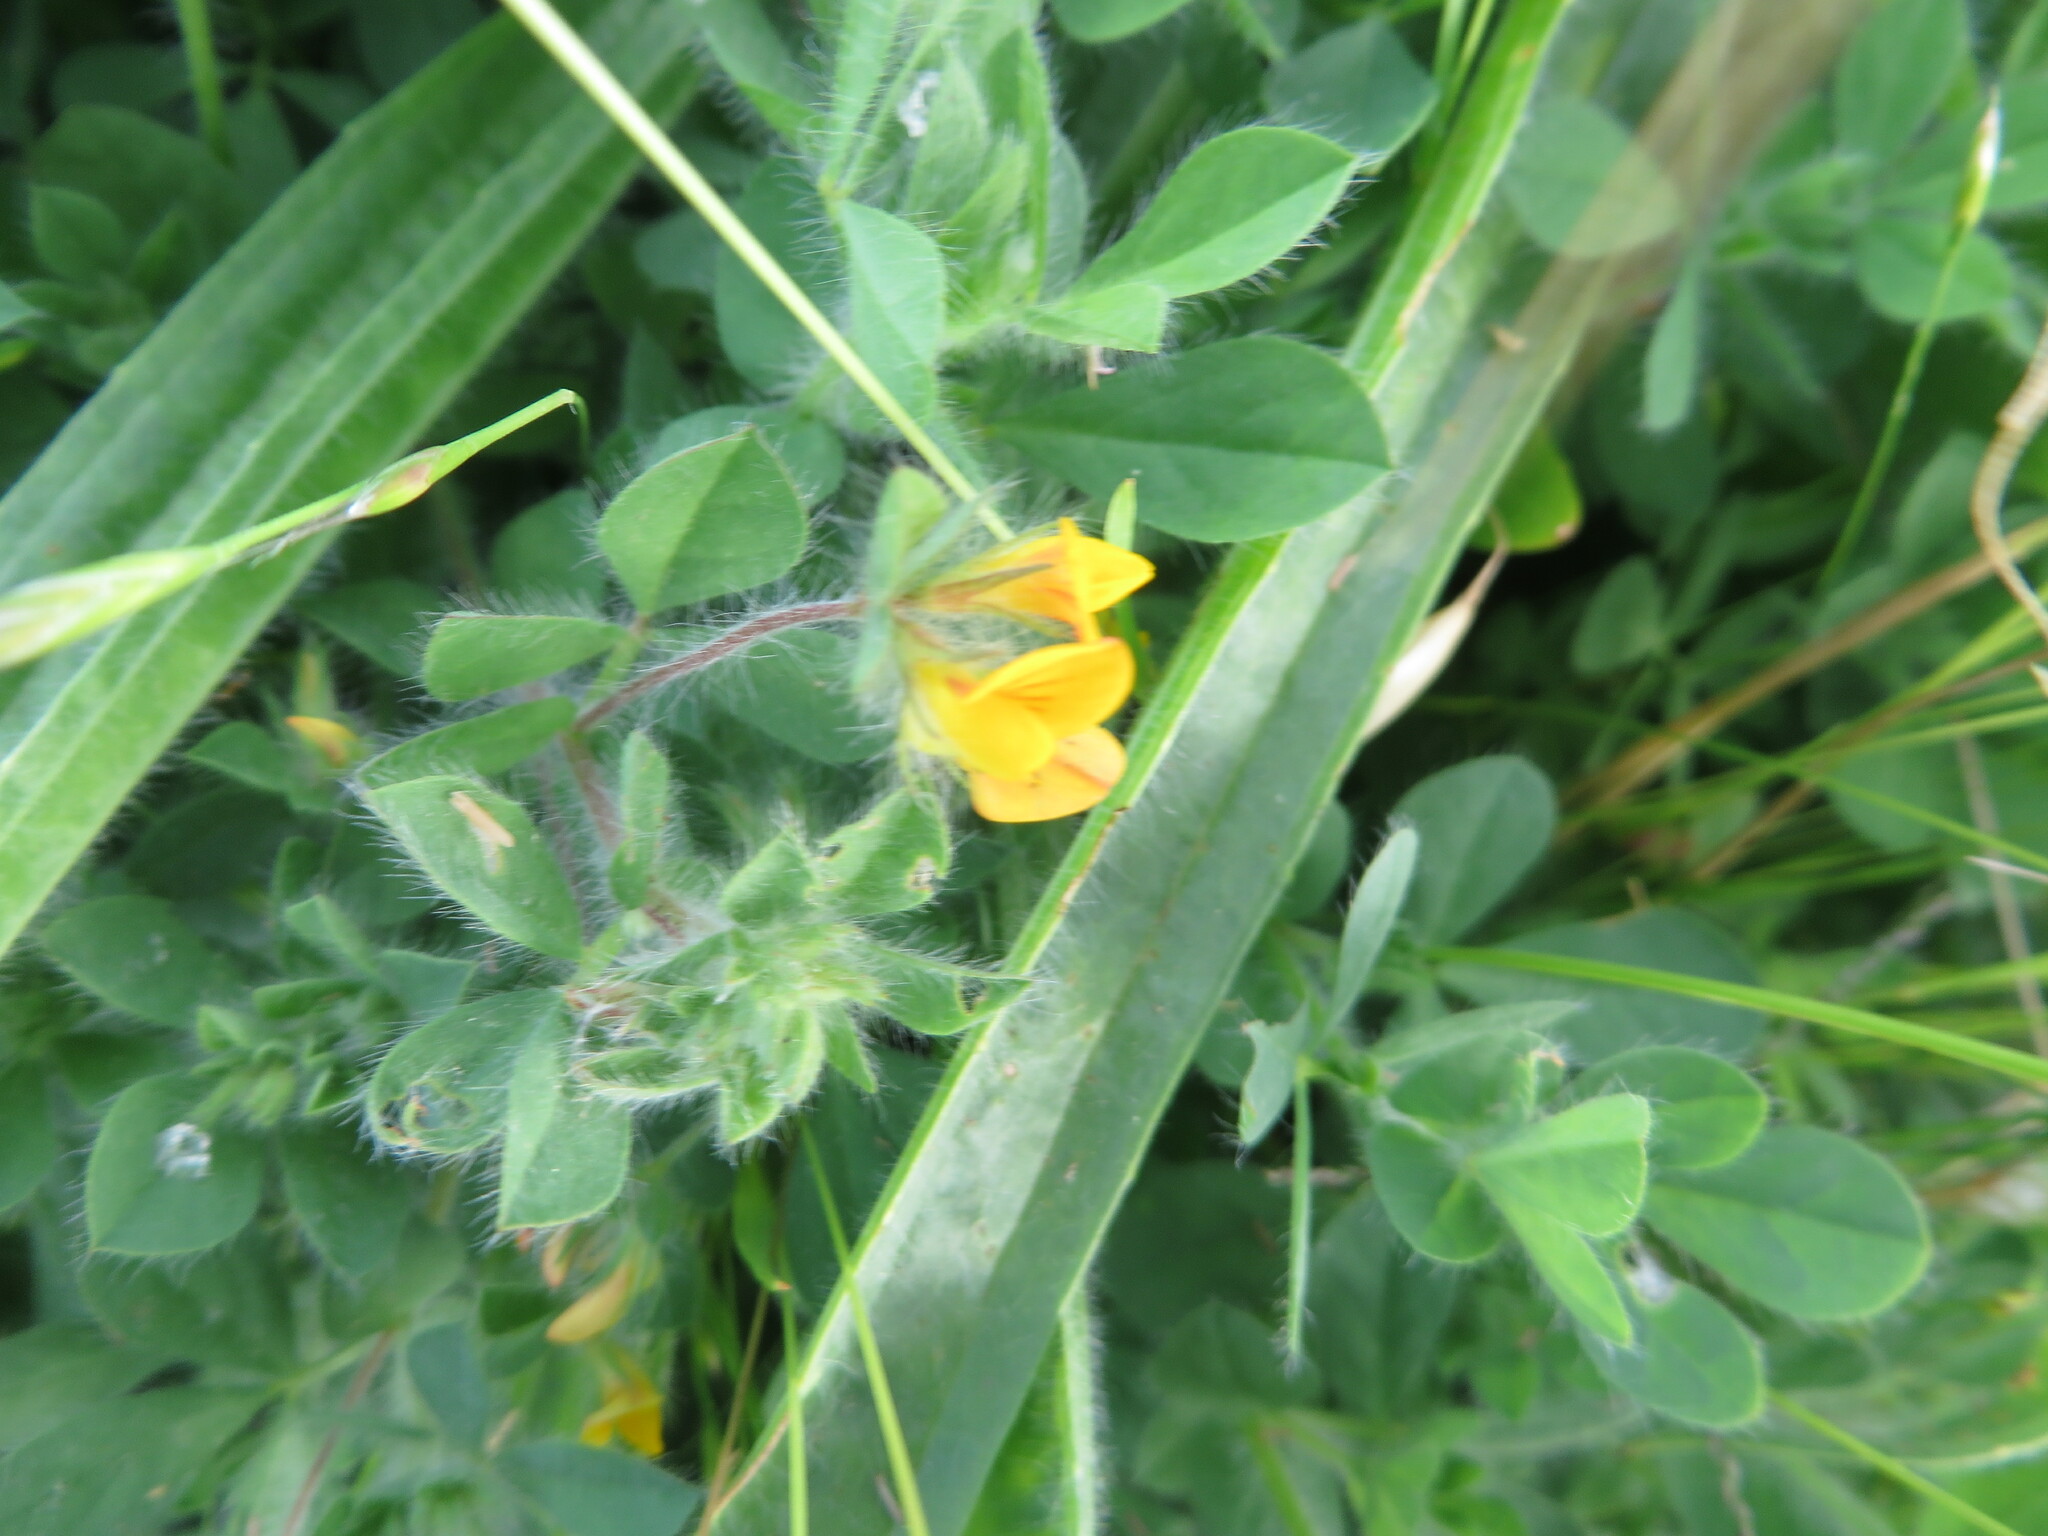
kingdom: Plantae
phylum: Tracheophyta
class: Magnoliopsida
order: Fabales
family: Fabaceae
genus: Lotus
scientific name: Lotus subbiflorus
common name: Hairy bird's-foot trefoil
